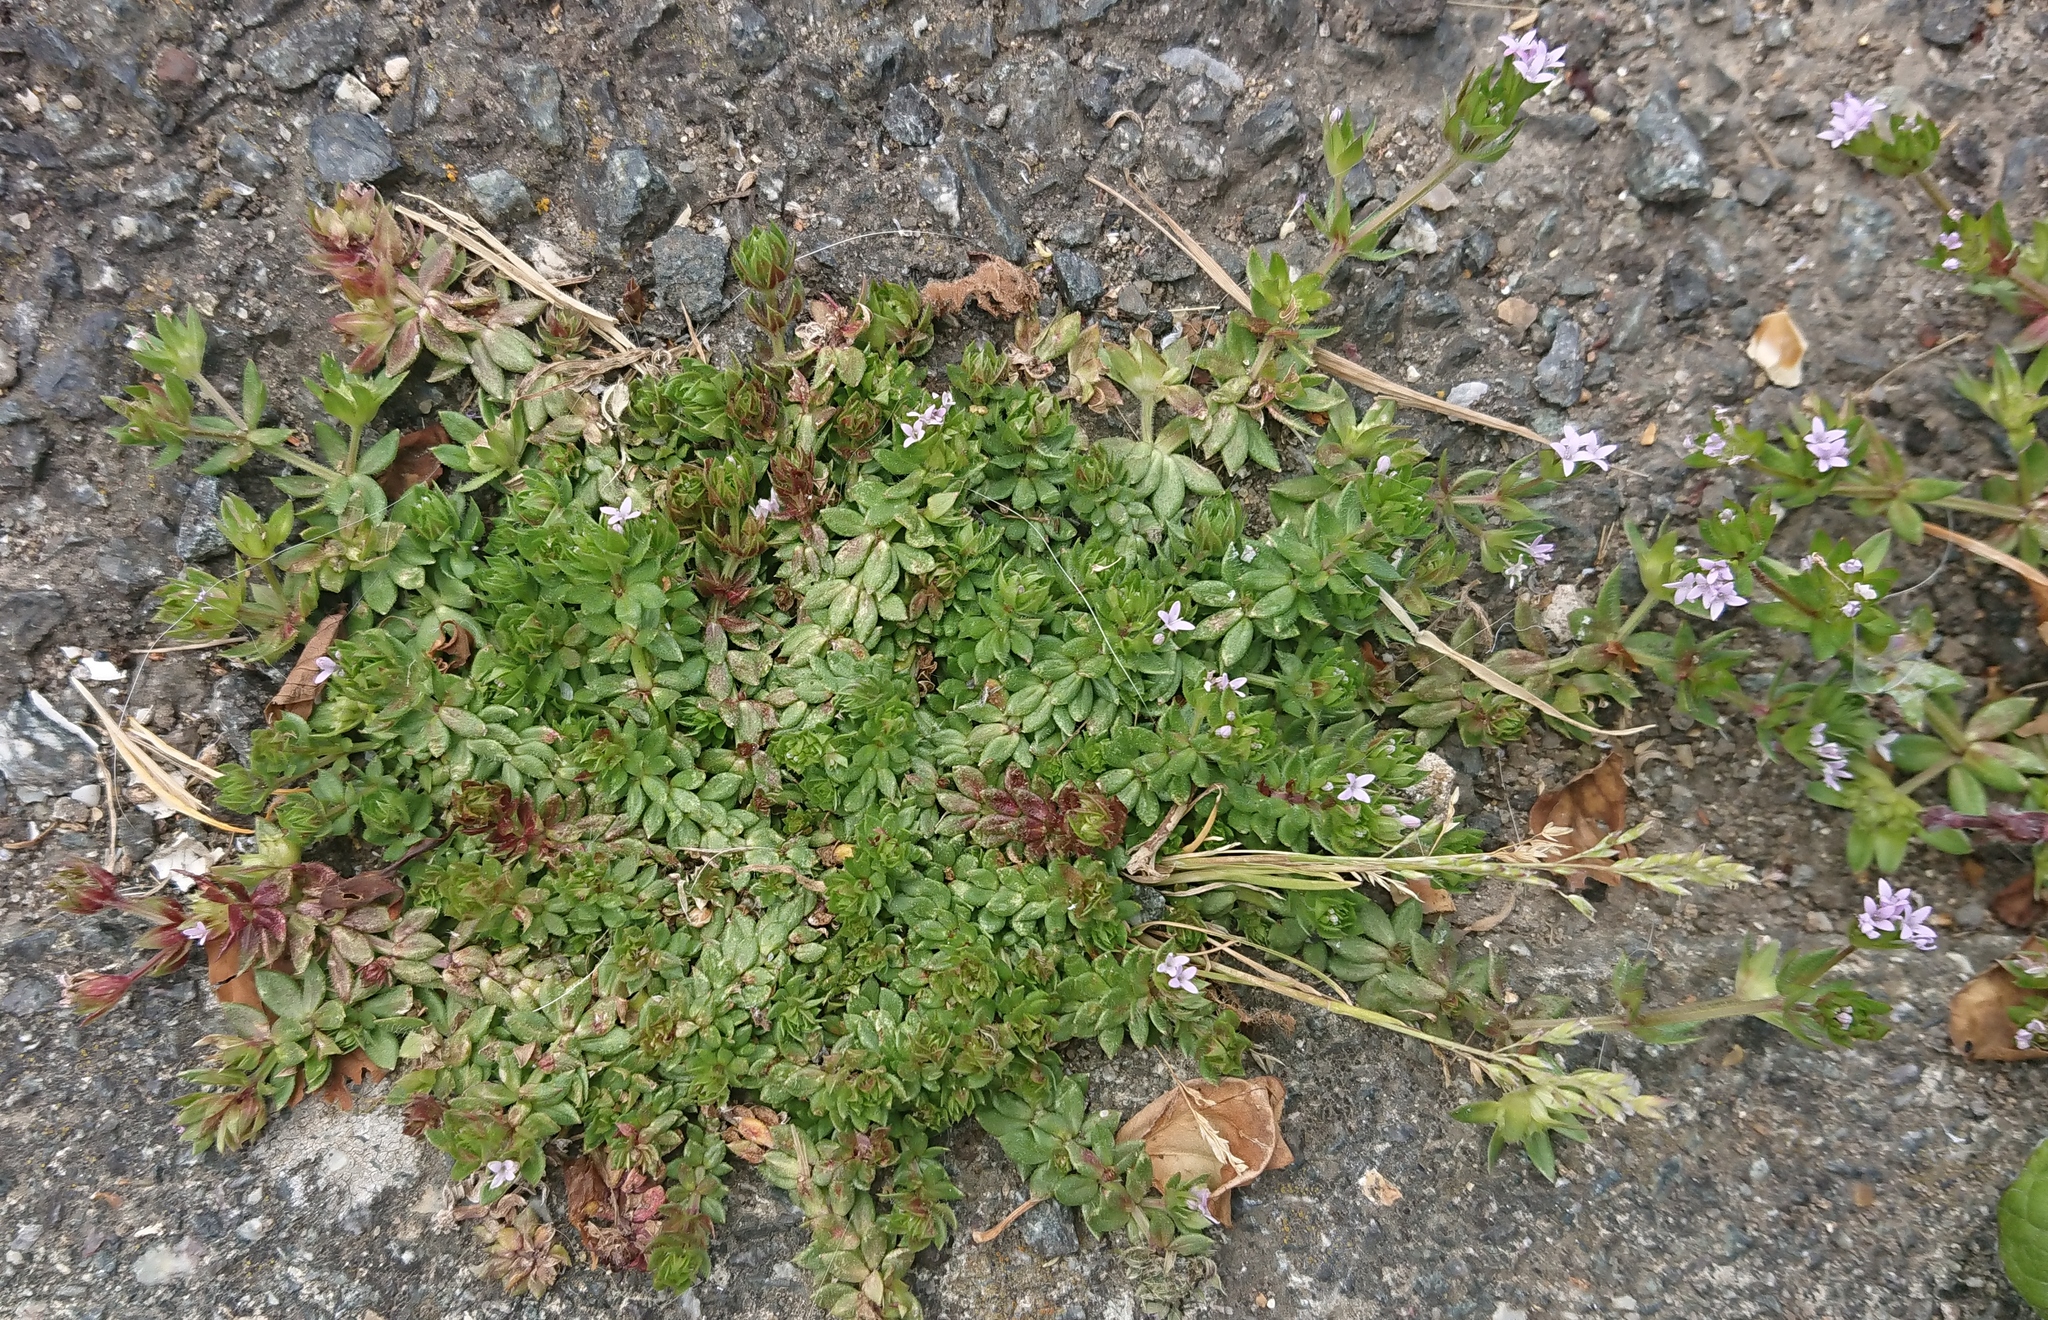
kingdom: Plantae
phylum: Tracheophyta
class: Magnoliopsida
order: Gentianales
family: Rubiaceae
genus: Sherardia
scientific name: Sherardia arvensis
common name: Field madder
